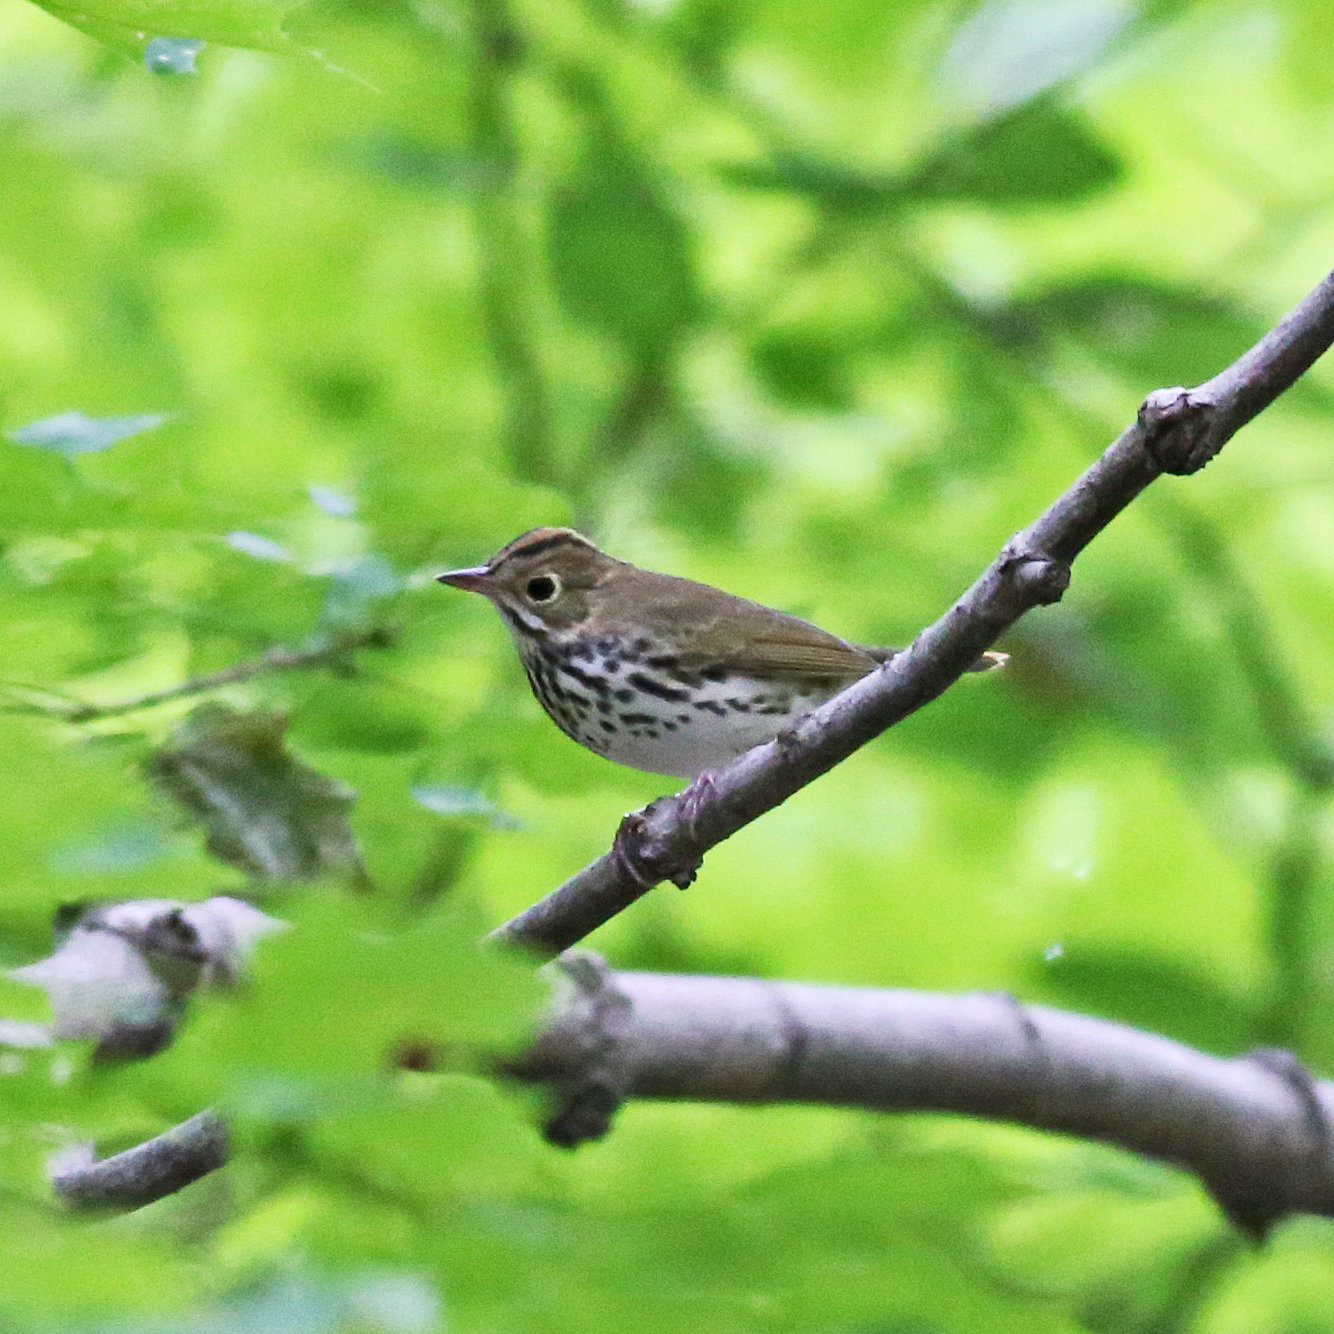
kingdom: Animalia
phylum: Chordata
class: Aves
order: Passeriformes
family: Parulidae
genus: Seiurus
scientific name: Seiurus aurocapilla
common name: Ovenbird
